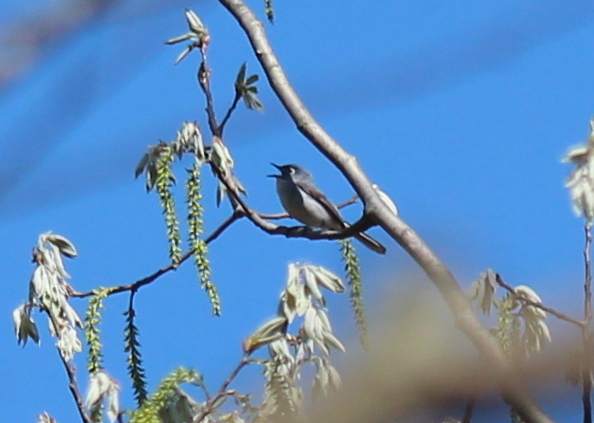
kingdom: Animalia
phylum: Chordata
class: Aves
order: Passeriformes
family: Polioptilidae
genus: Polioptila
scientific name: Polioptila caerulea
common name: Blue-gray gnatcatcher
